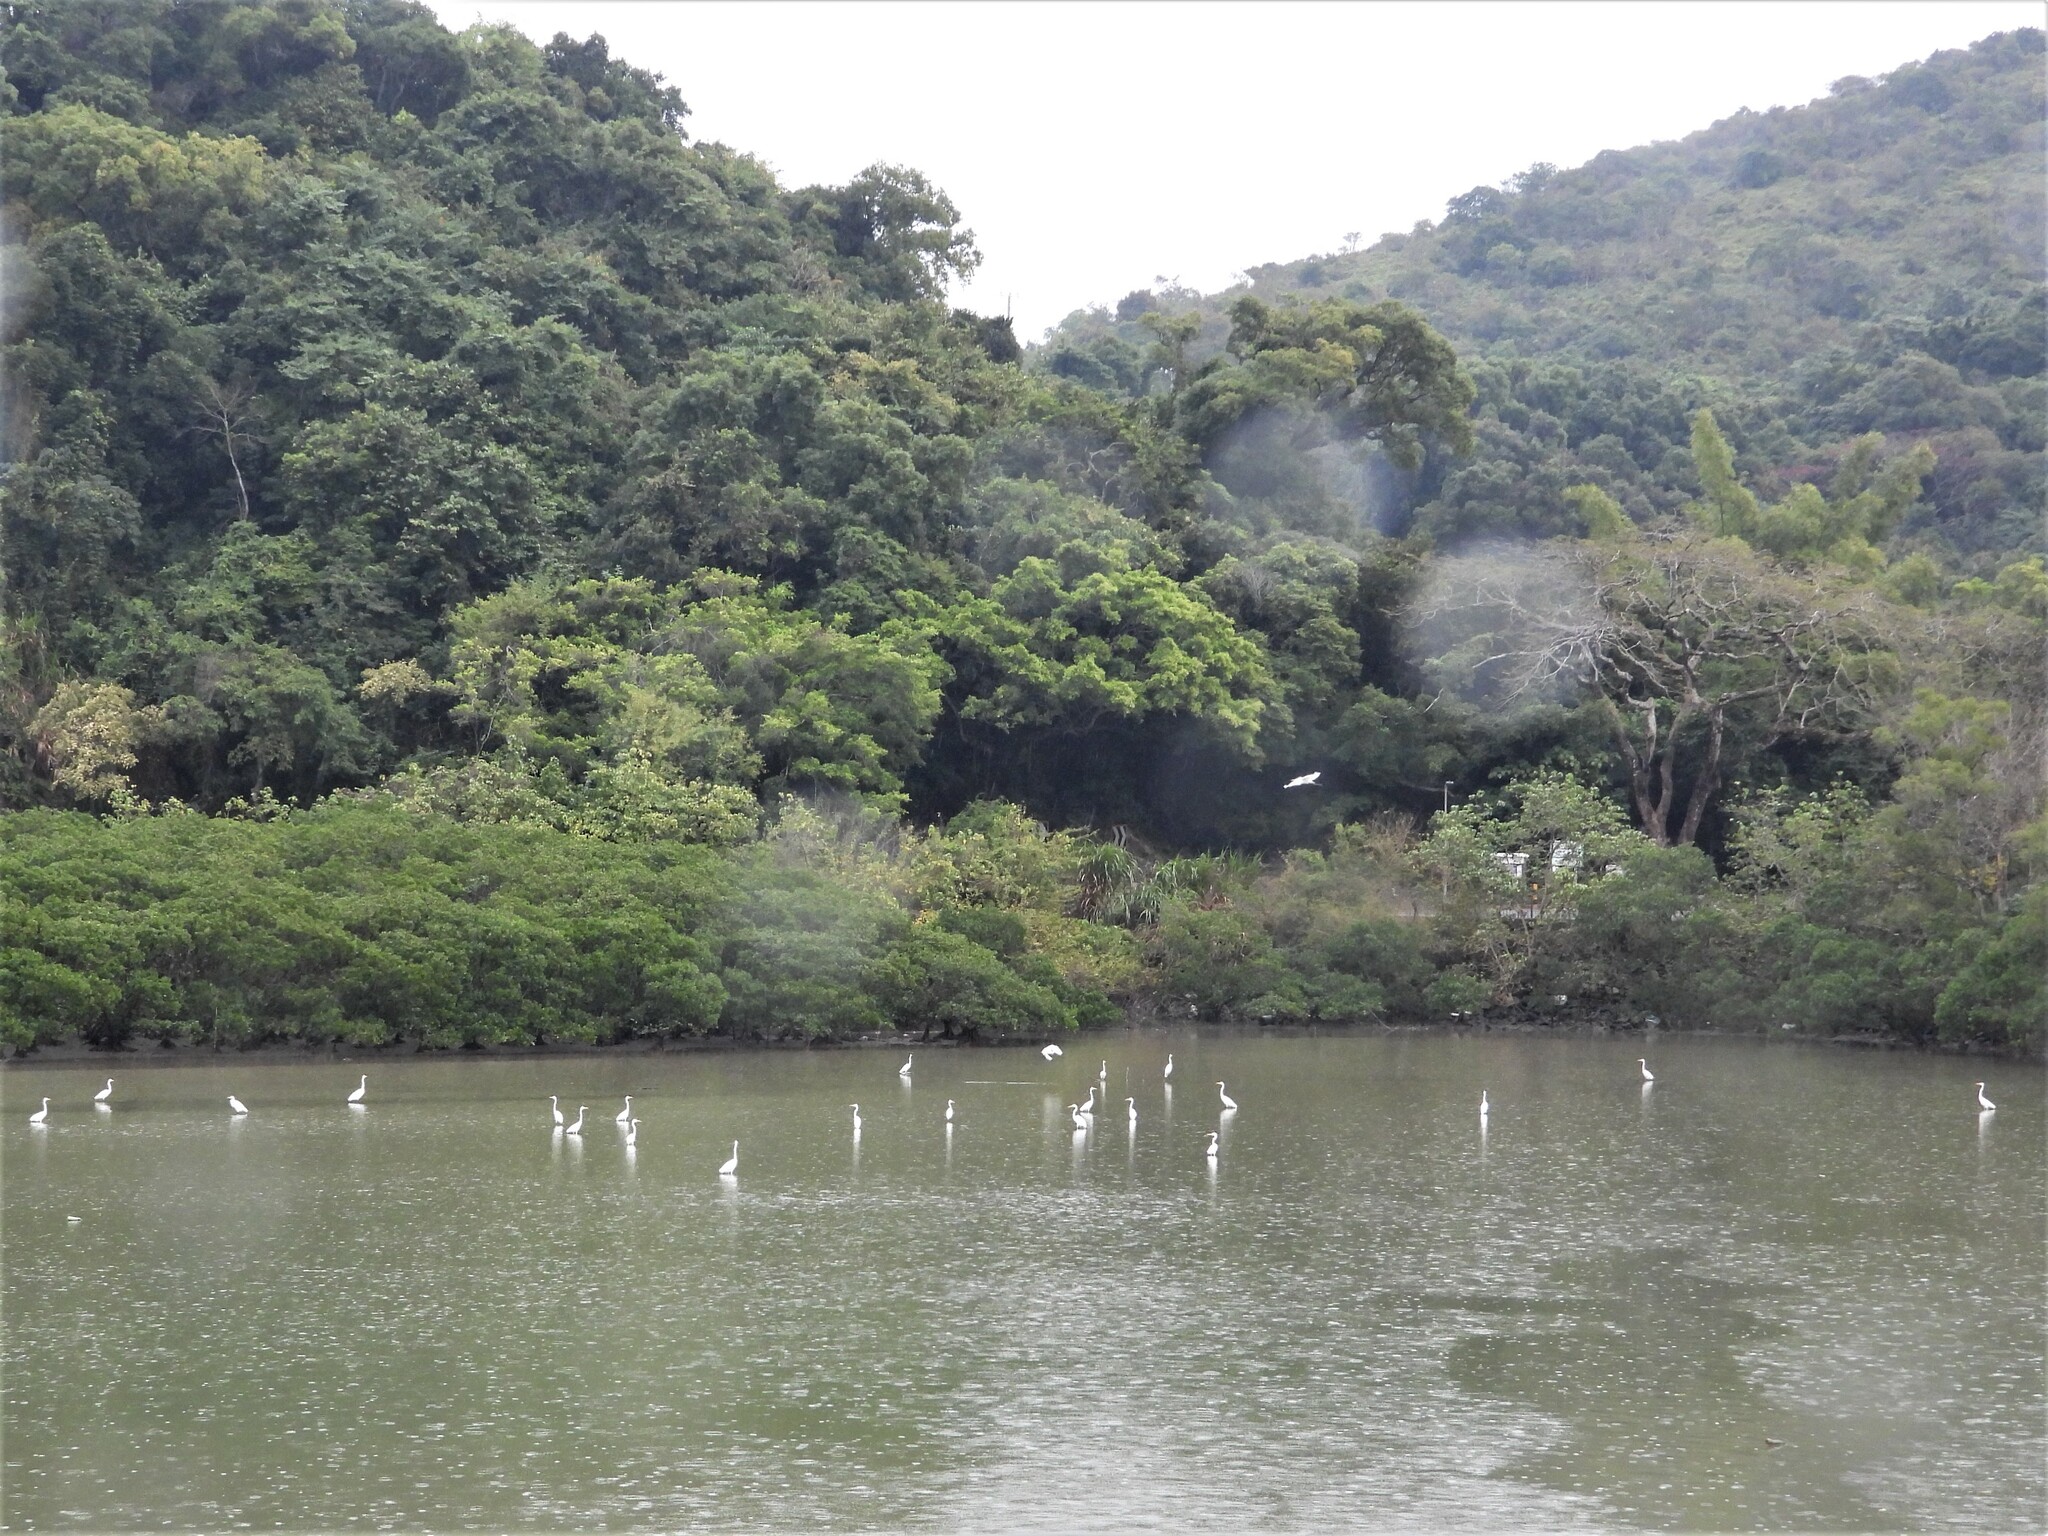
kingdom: Animalia
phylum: Chordata
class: Aves
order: Pelecaniformes
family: Ardeidae
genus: Ardea
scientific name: Ardea alba
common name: Great egret
